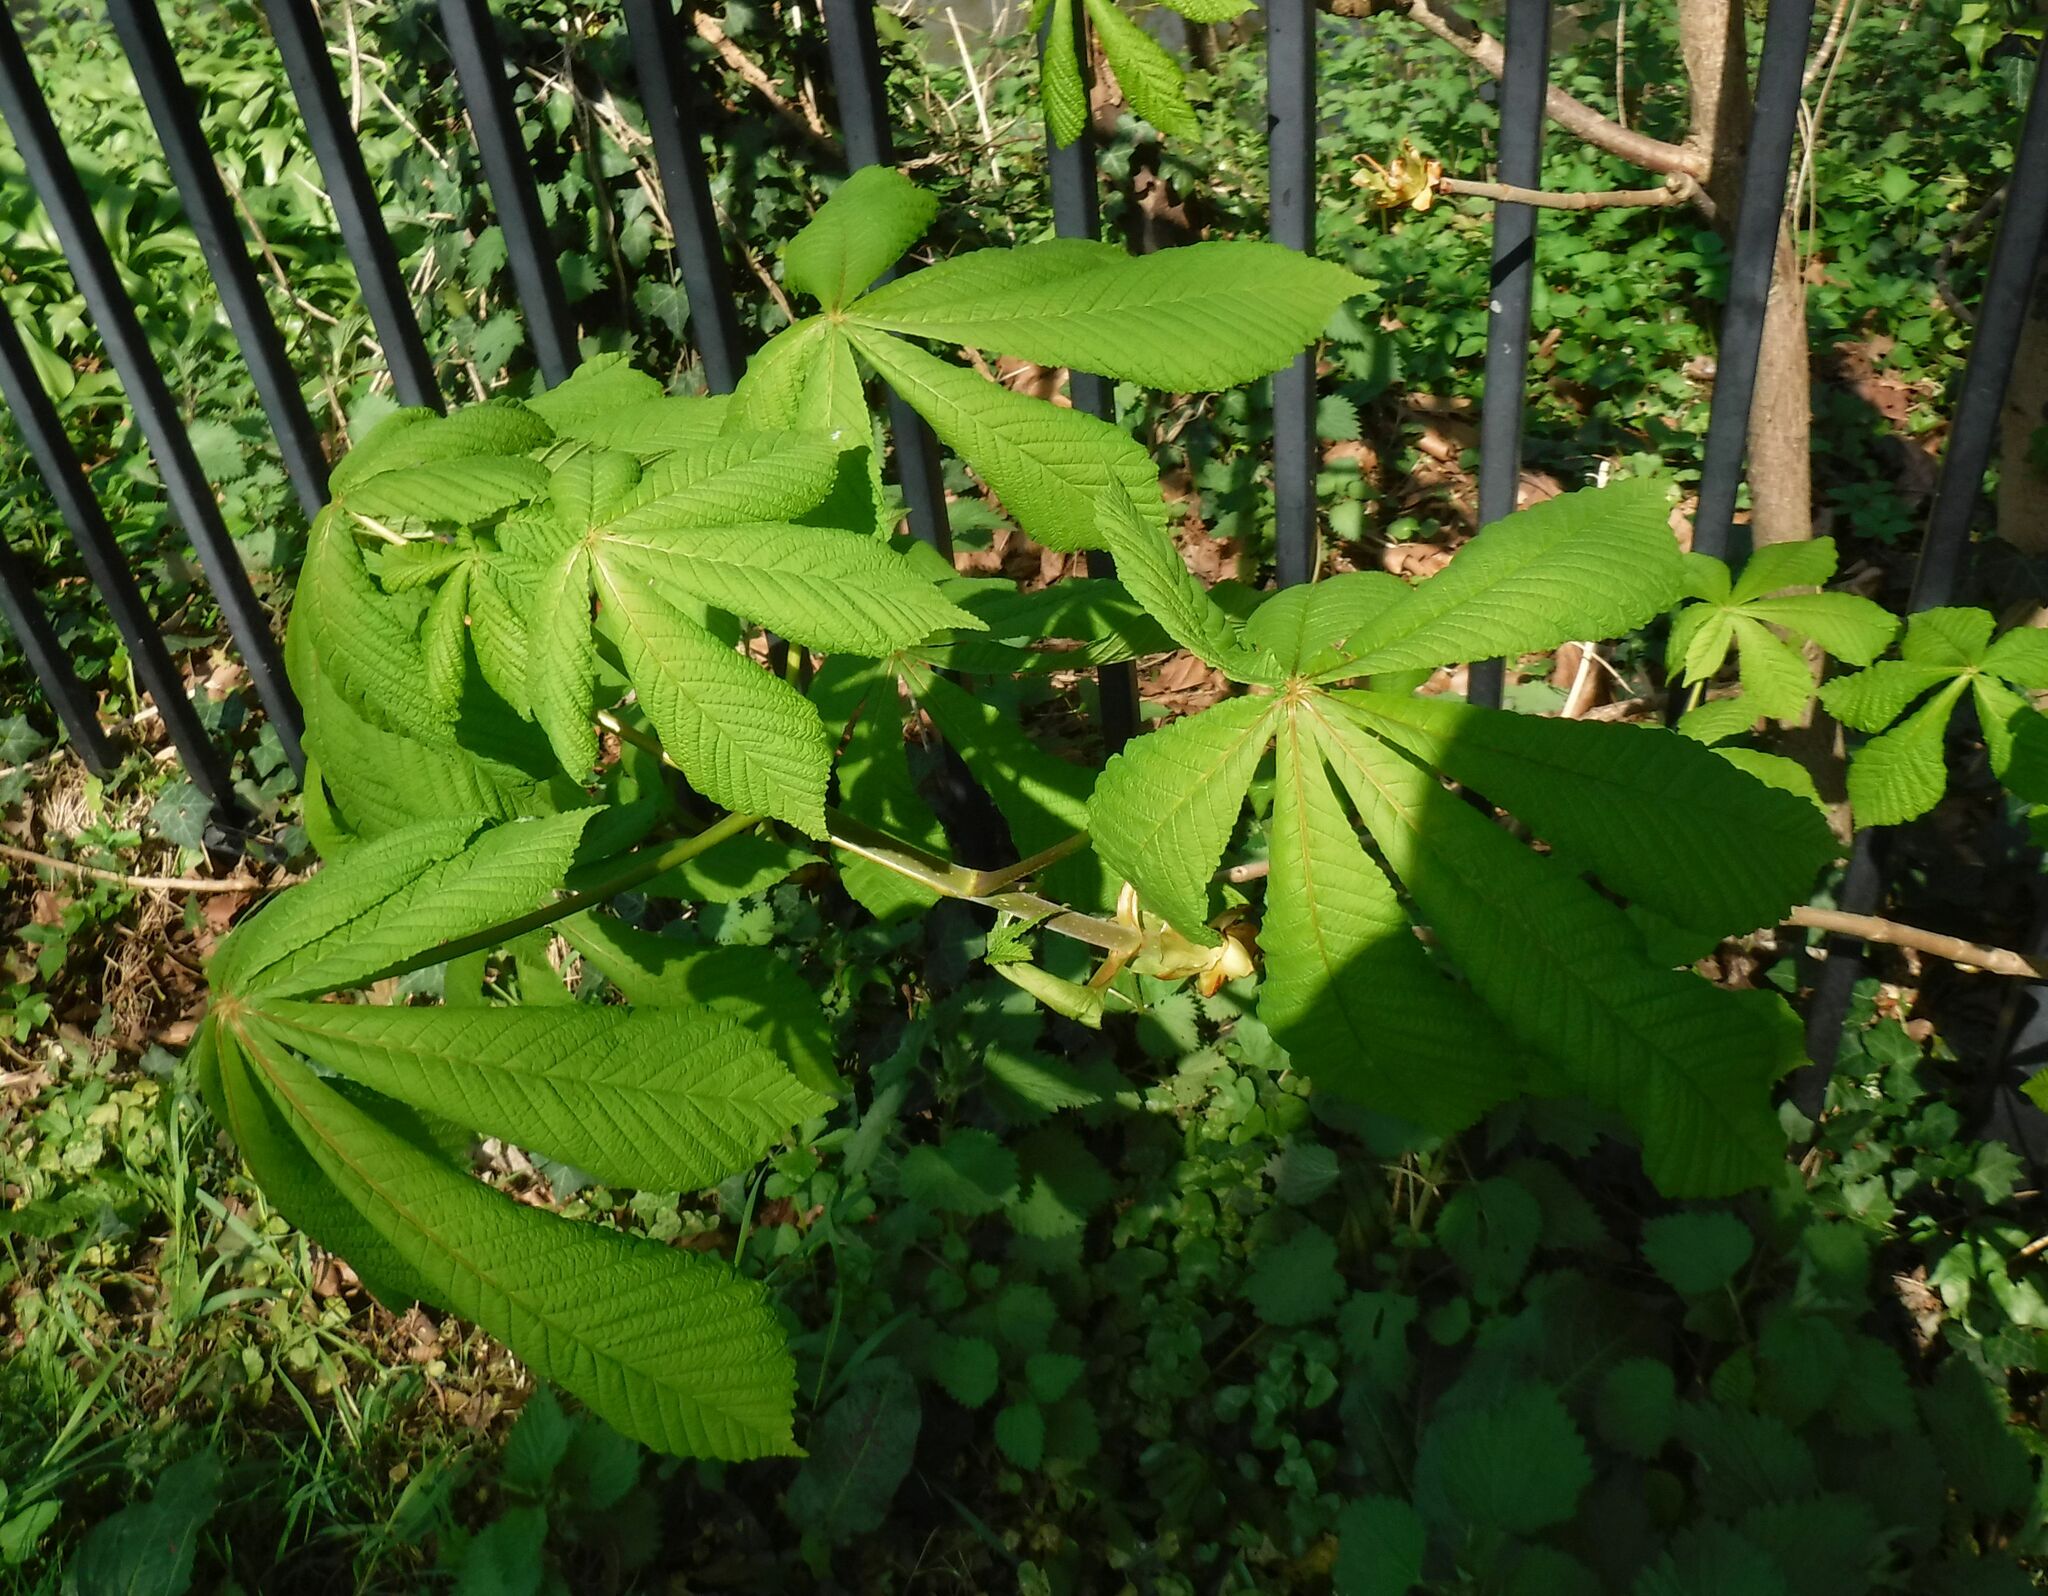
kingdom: Plantae
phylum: Tracheophyta
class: Magnoliopsida
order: Sapindales
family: Sapindaceae
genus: Aesculus
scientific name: Aesculus hippocastanum
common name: Horse-chestnut
